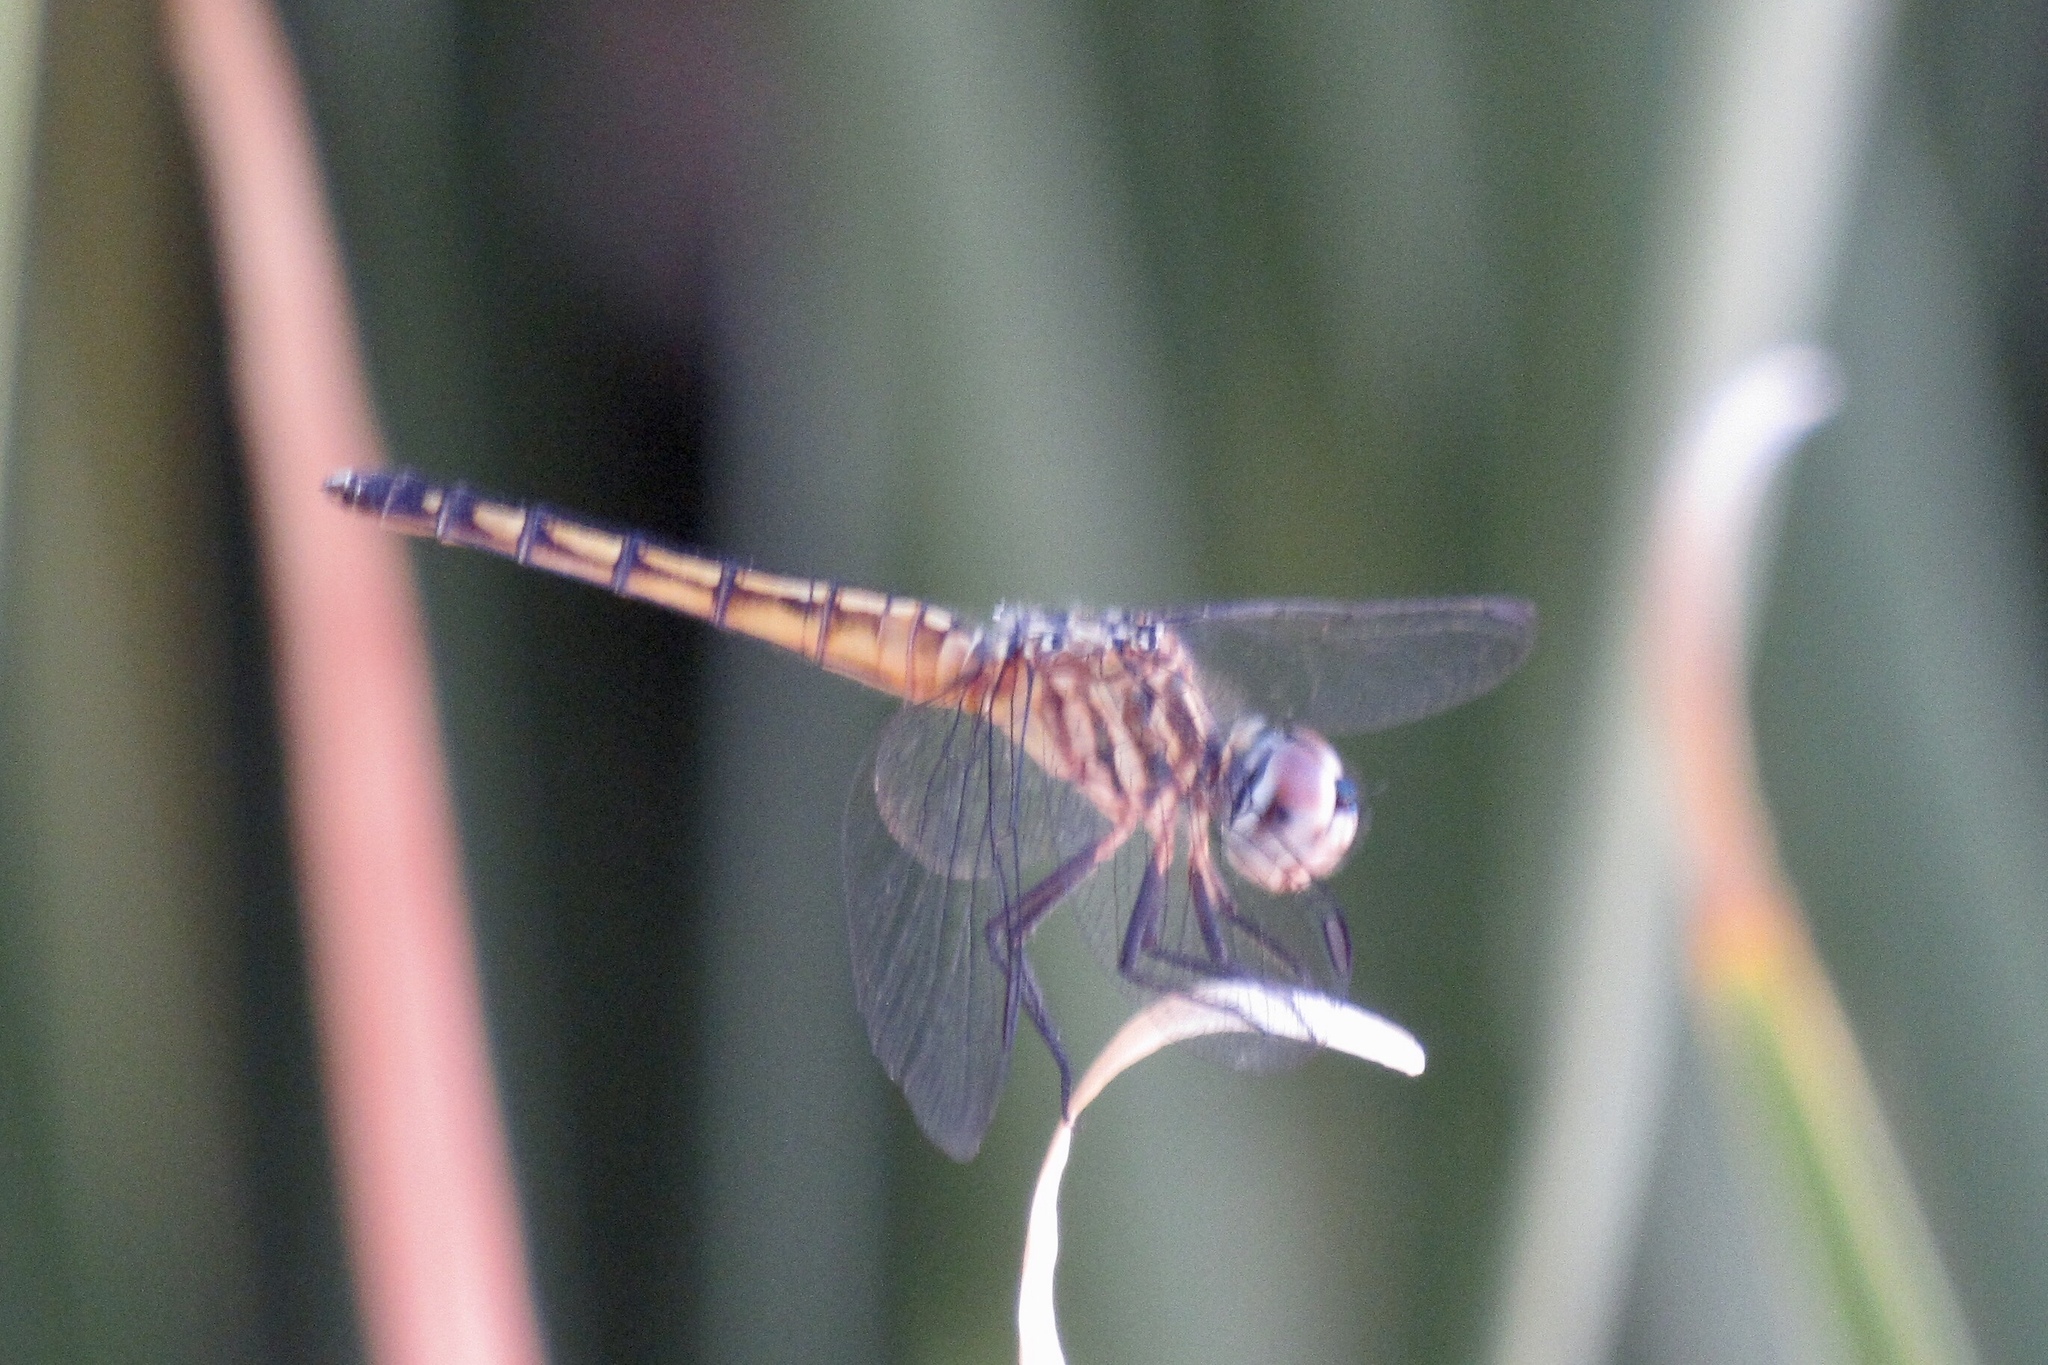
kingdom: Animalia
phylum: Arthropoda
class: Insecta
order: Odonata
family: Libellulidae
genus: Pachydiplax
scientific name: Pachydiplax longipennis
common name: Blue dasher
